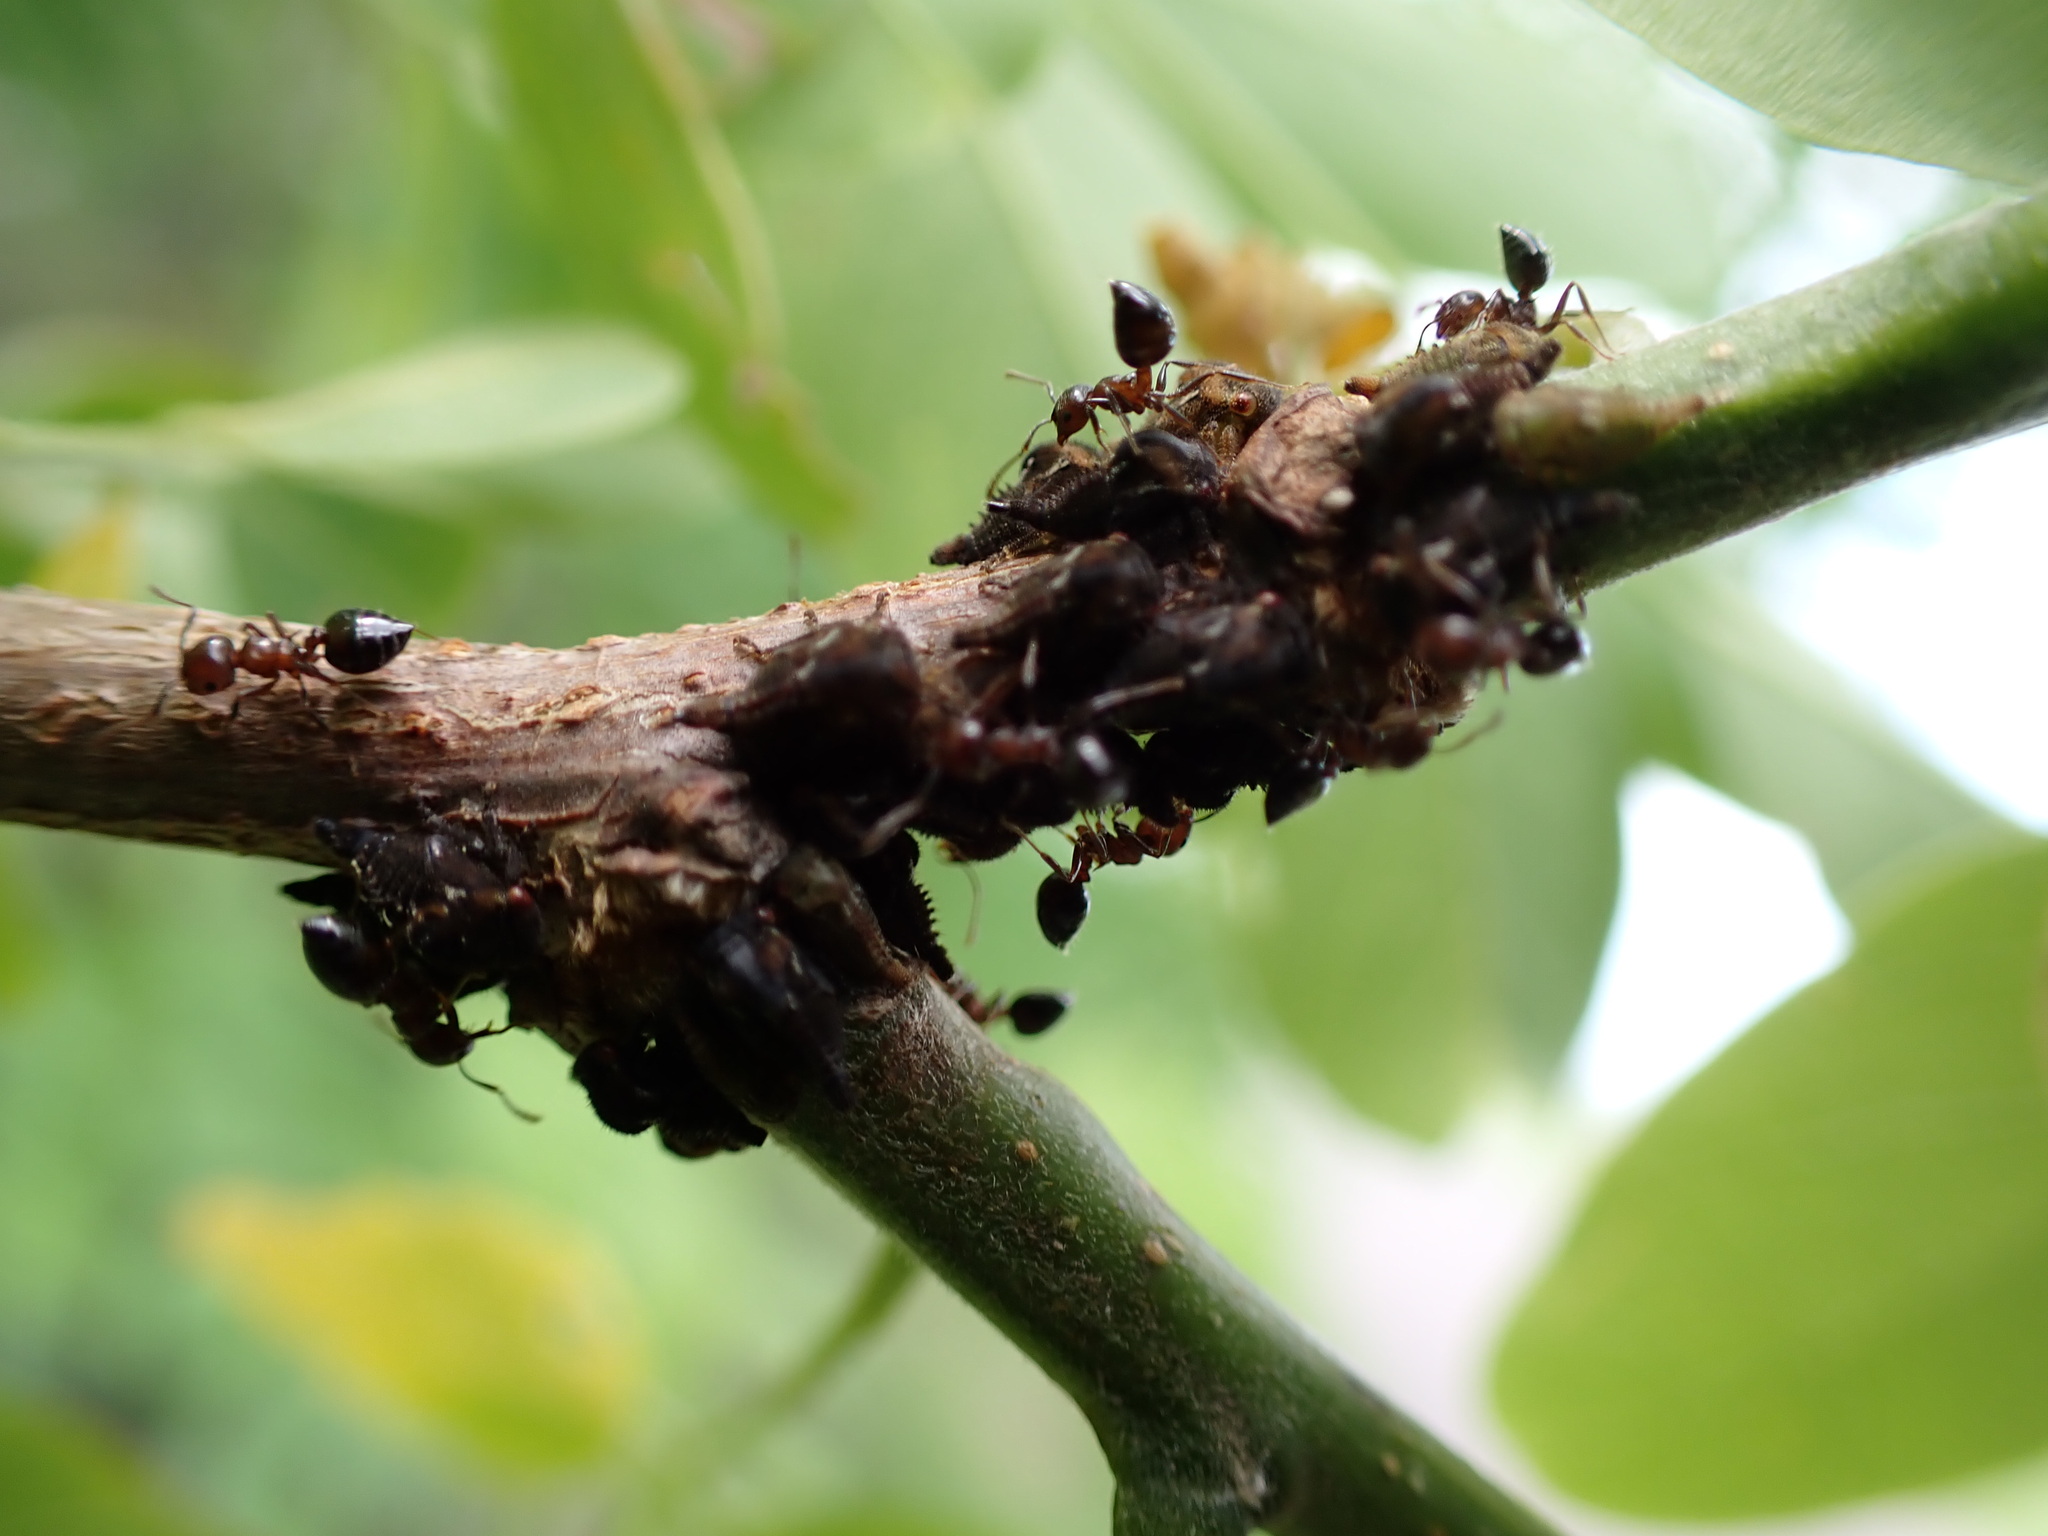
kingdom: Animalia
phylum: Arthropoda
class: Insecta
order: Hymenoptera
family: Formicidae
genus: Crematogaster
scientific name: Crematogaster
